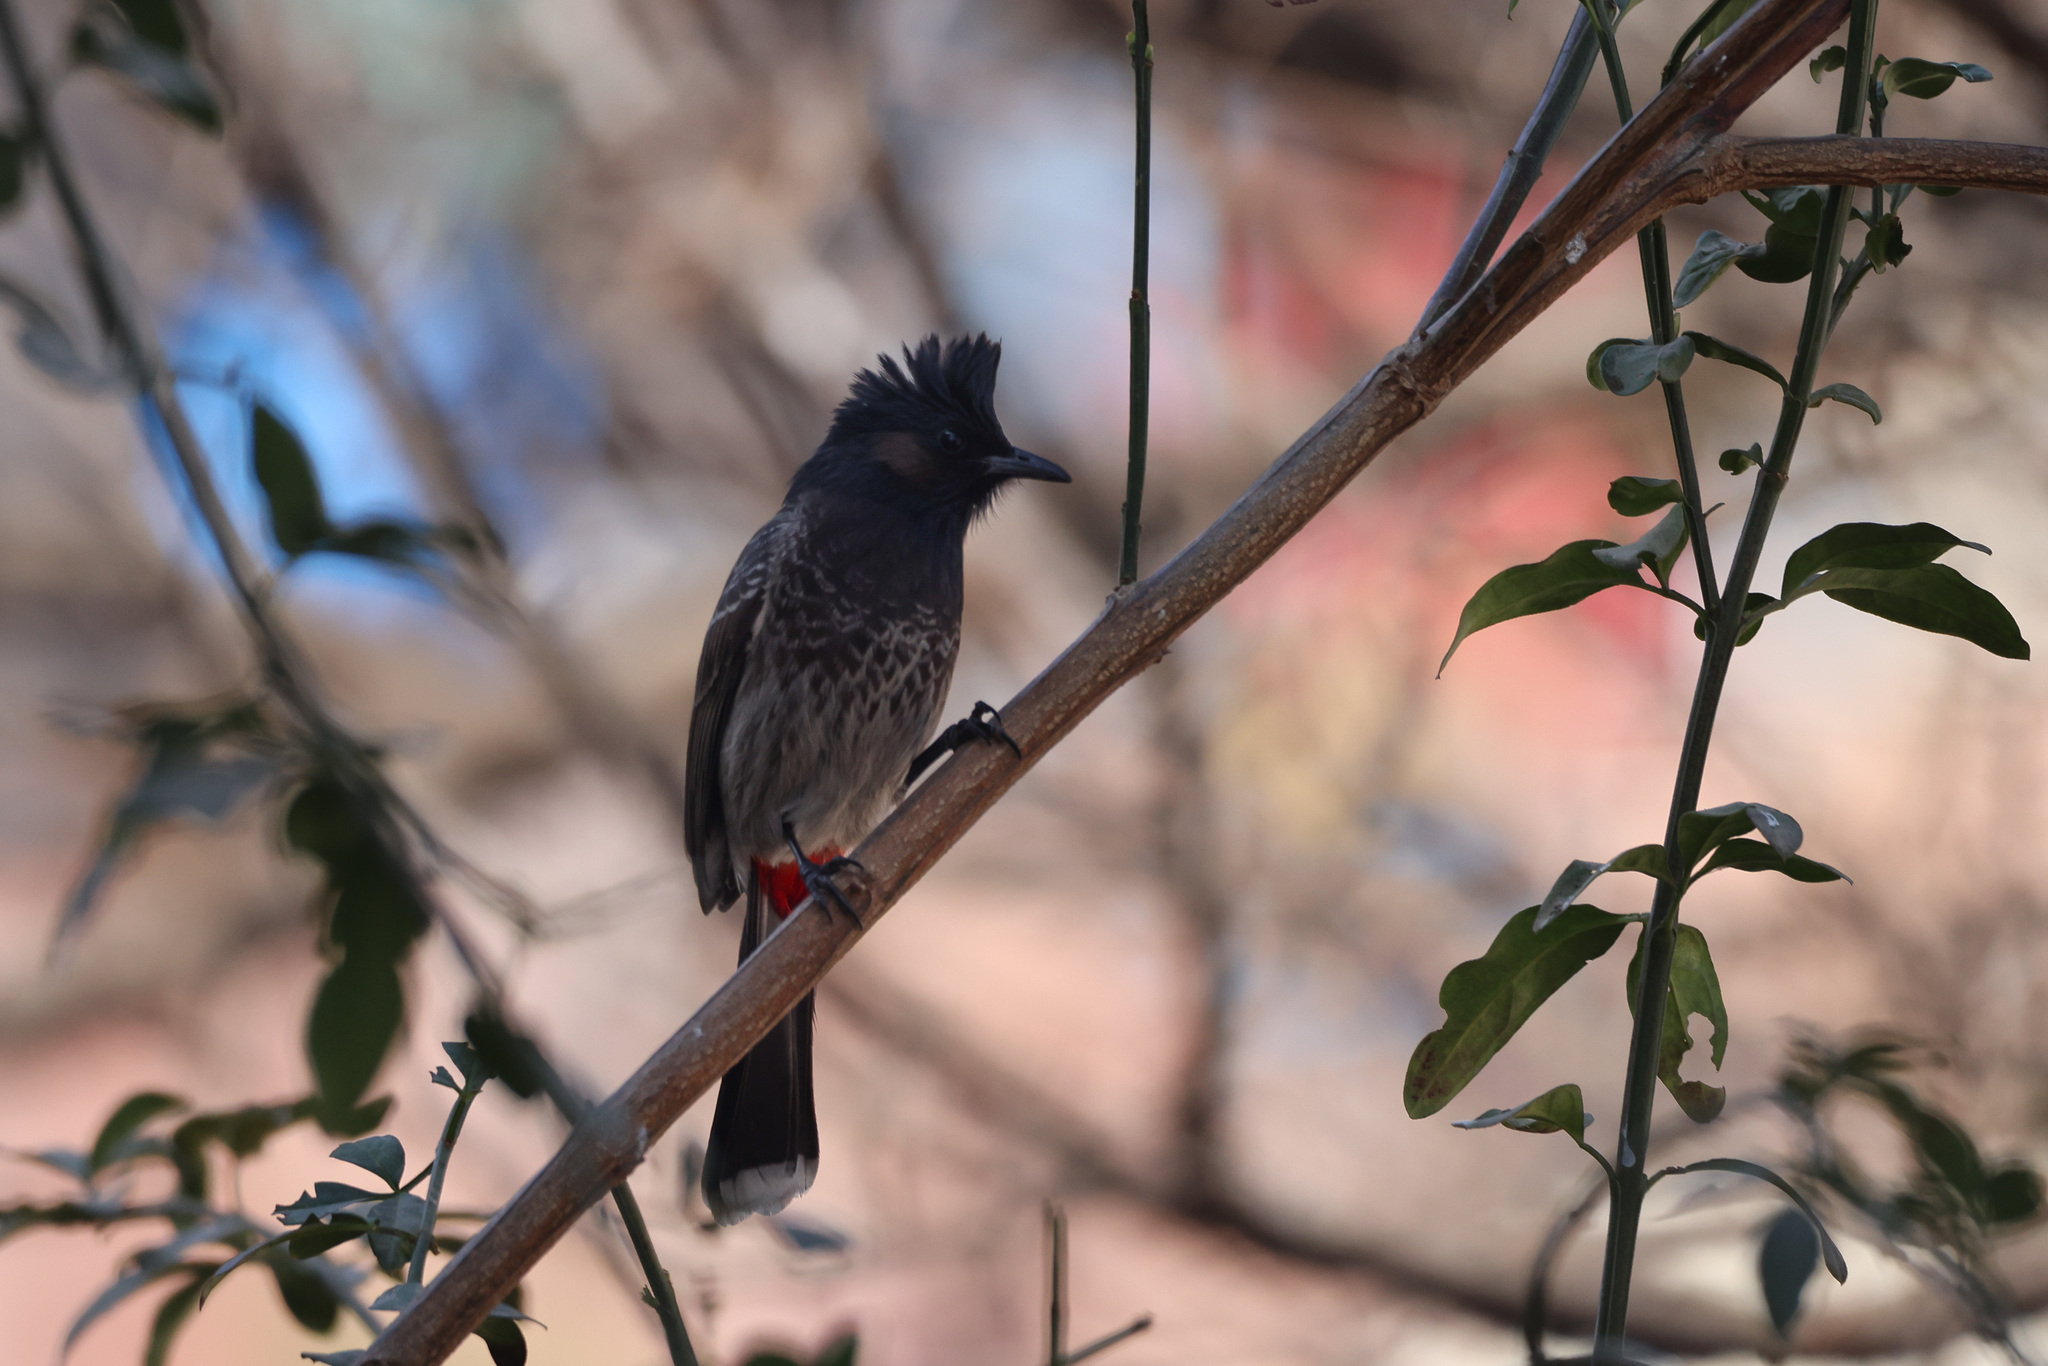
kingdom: Animalia
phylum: Chordata
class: Aves
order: Passeriformes
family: Pycnonotidae
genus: Pycnonotus
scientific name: Pycnonotus cafer
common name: Red-vented bulbul
